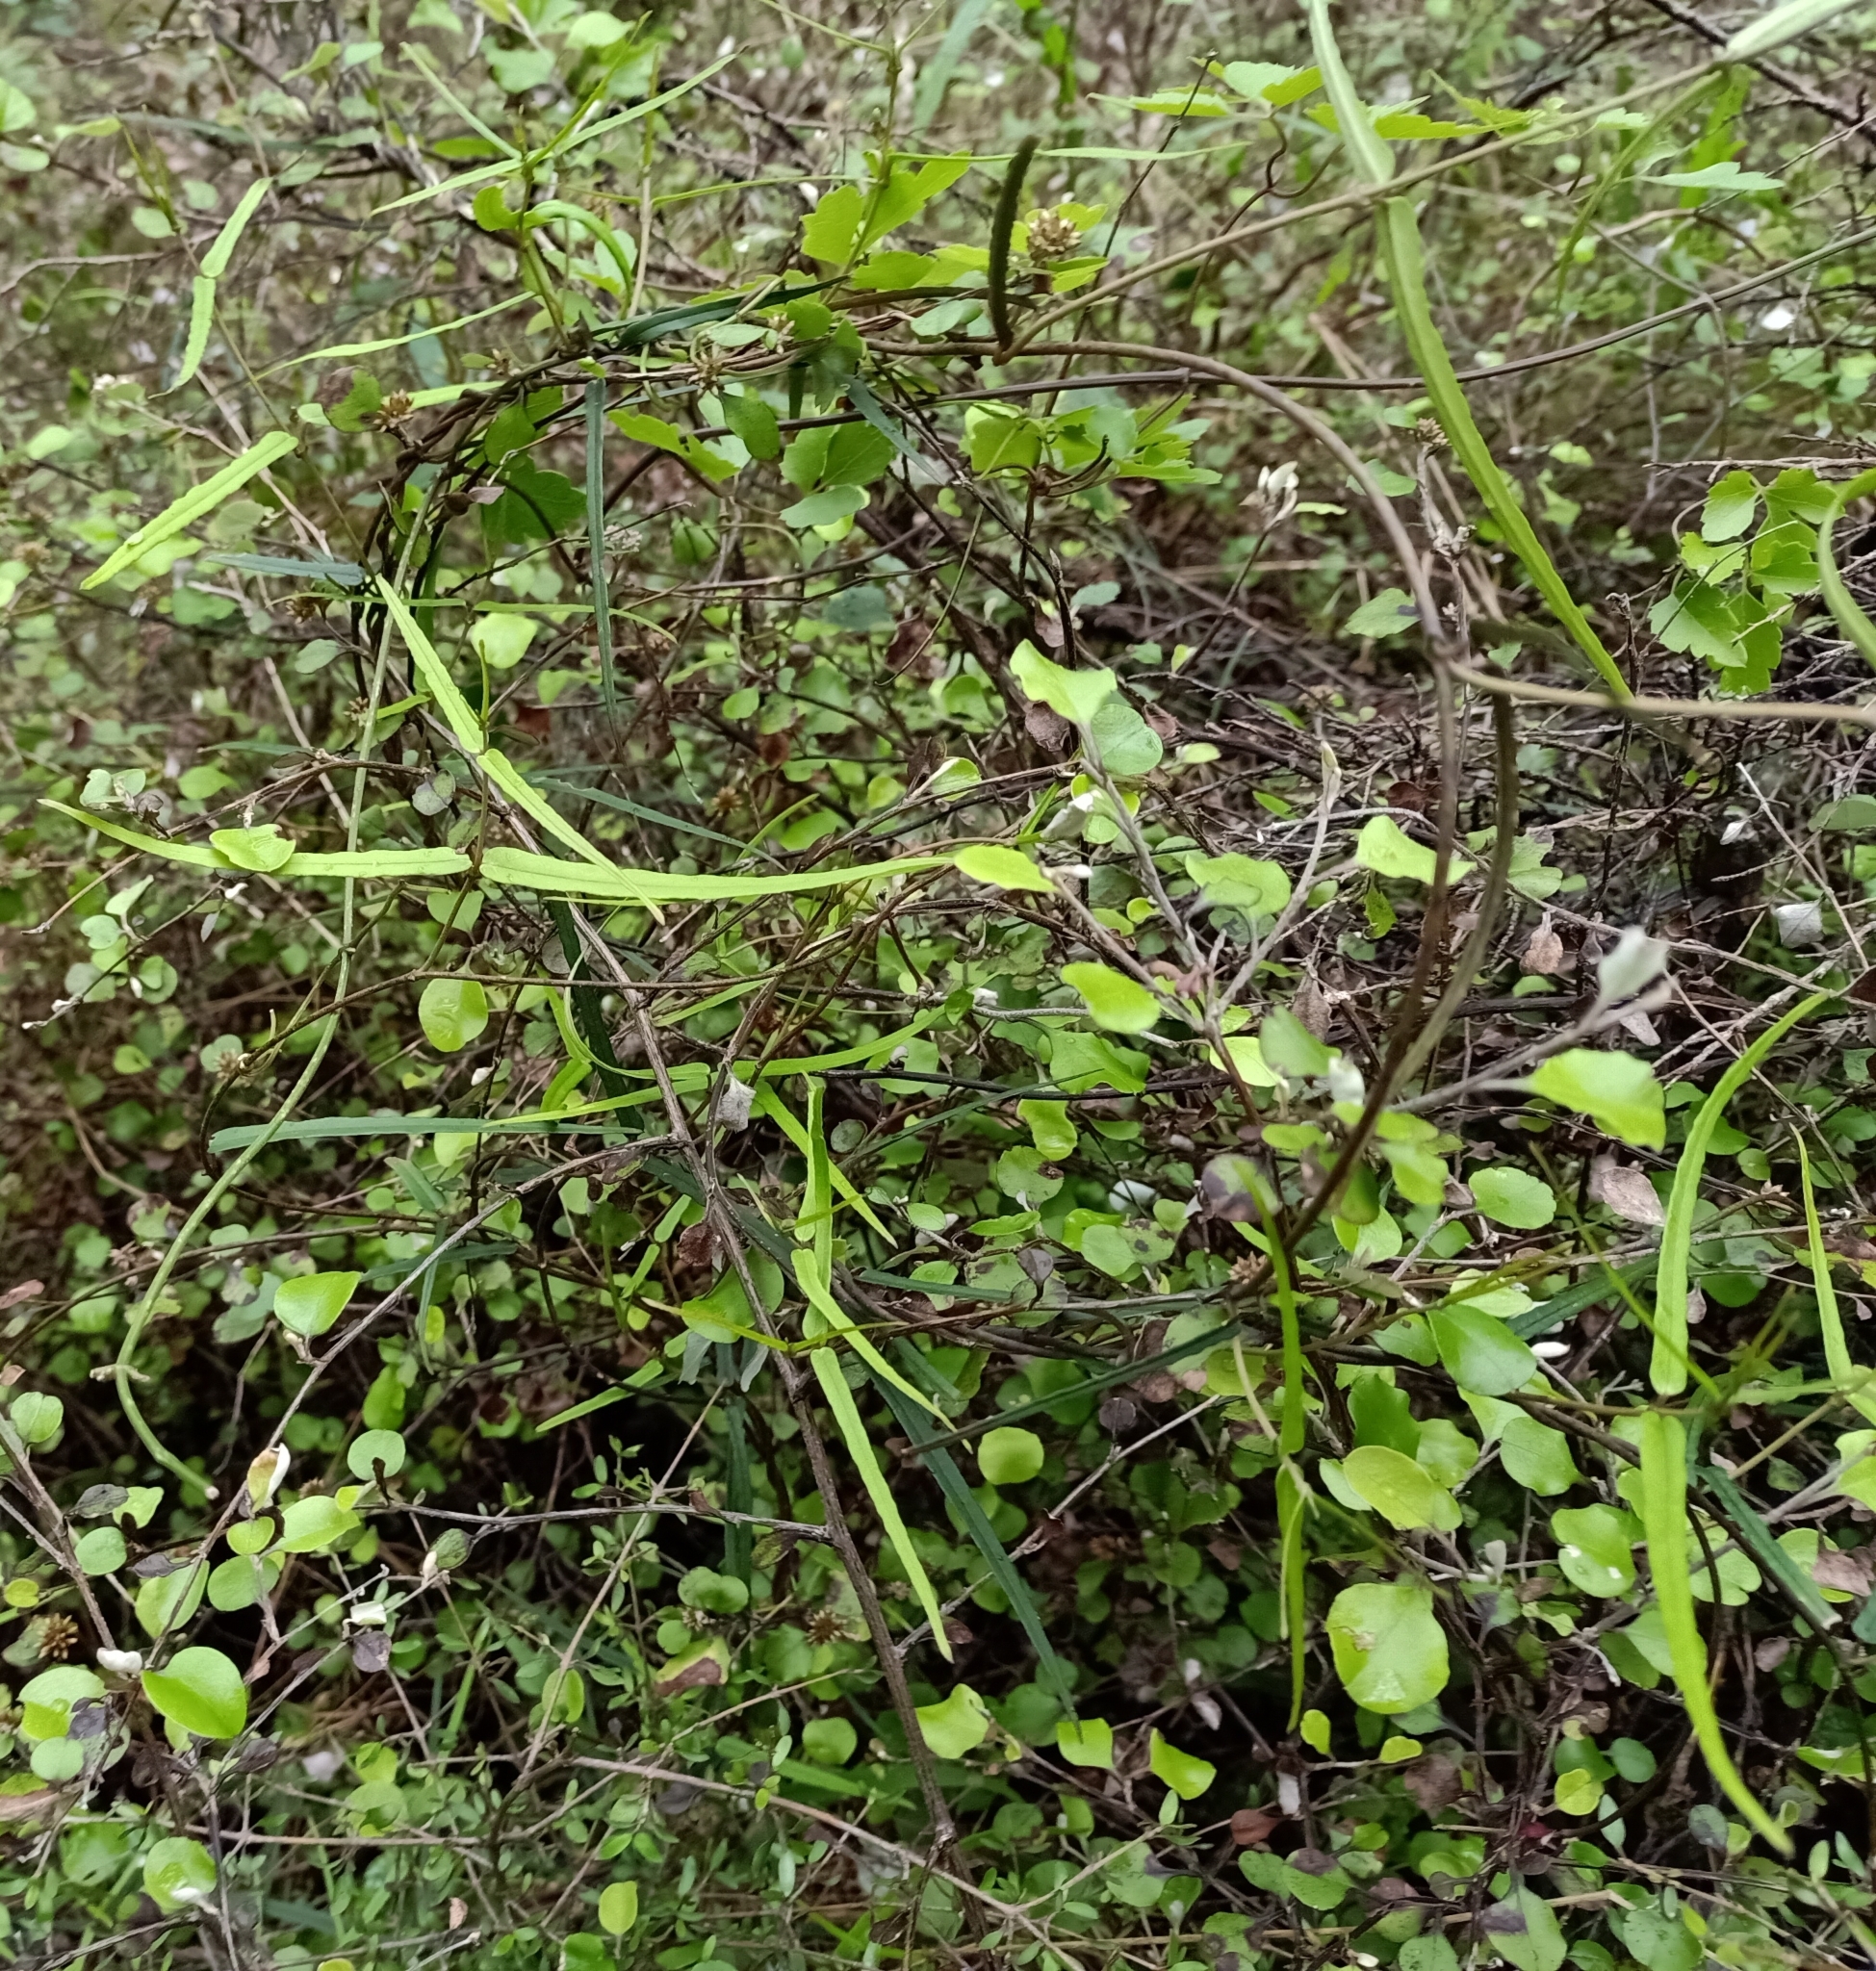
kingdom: Plantae
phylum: Tracheophyta
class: Magnoliopsida
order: Gentianales
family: Apocynaceae
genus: Parsonsia
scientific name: Parsonsia heterophylla
